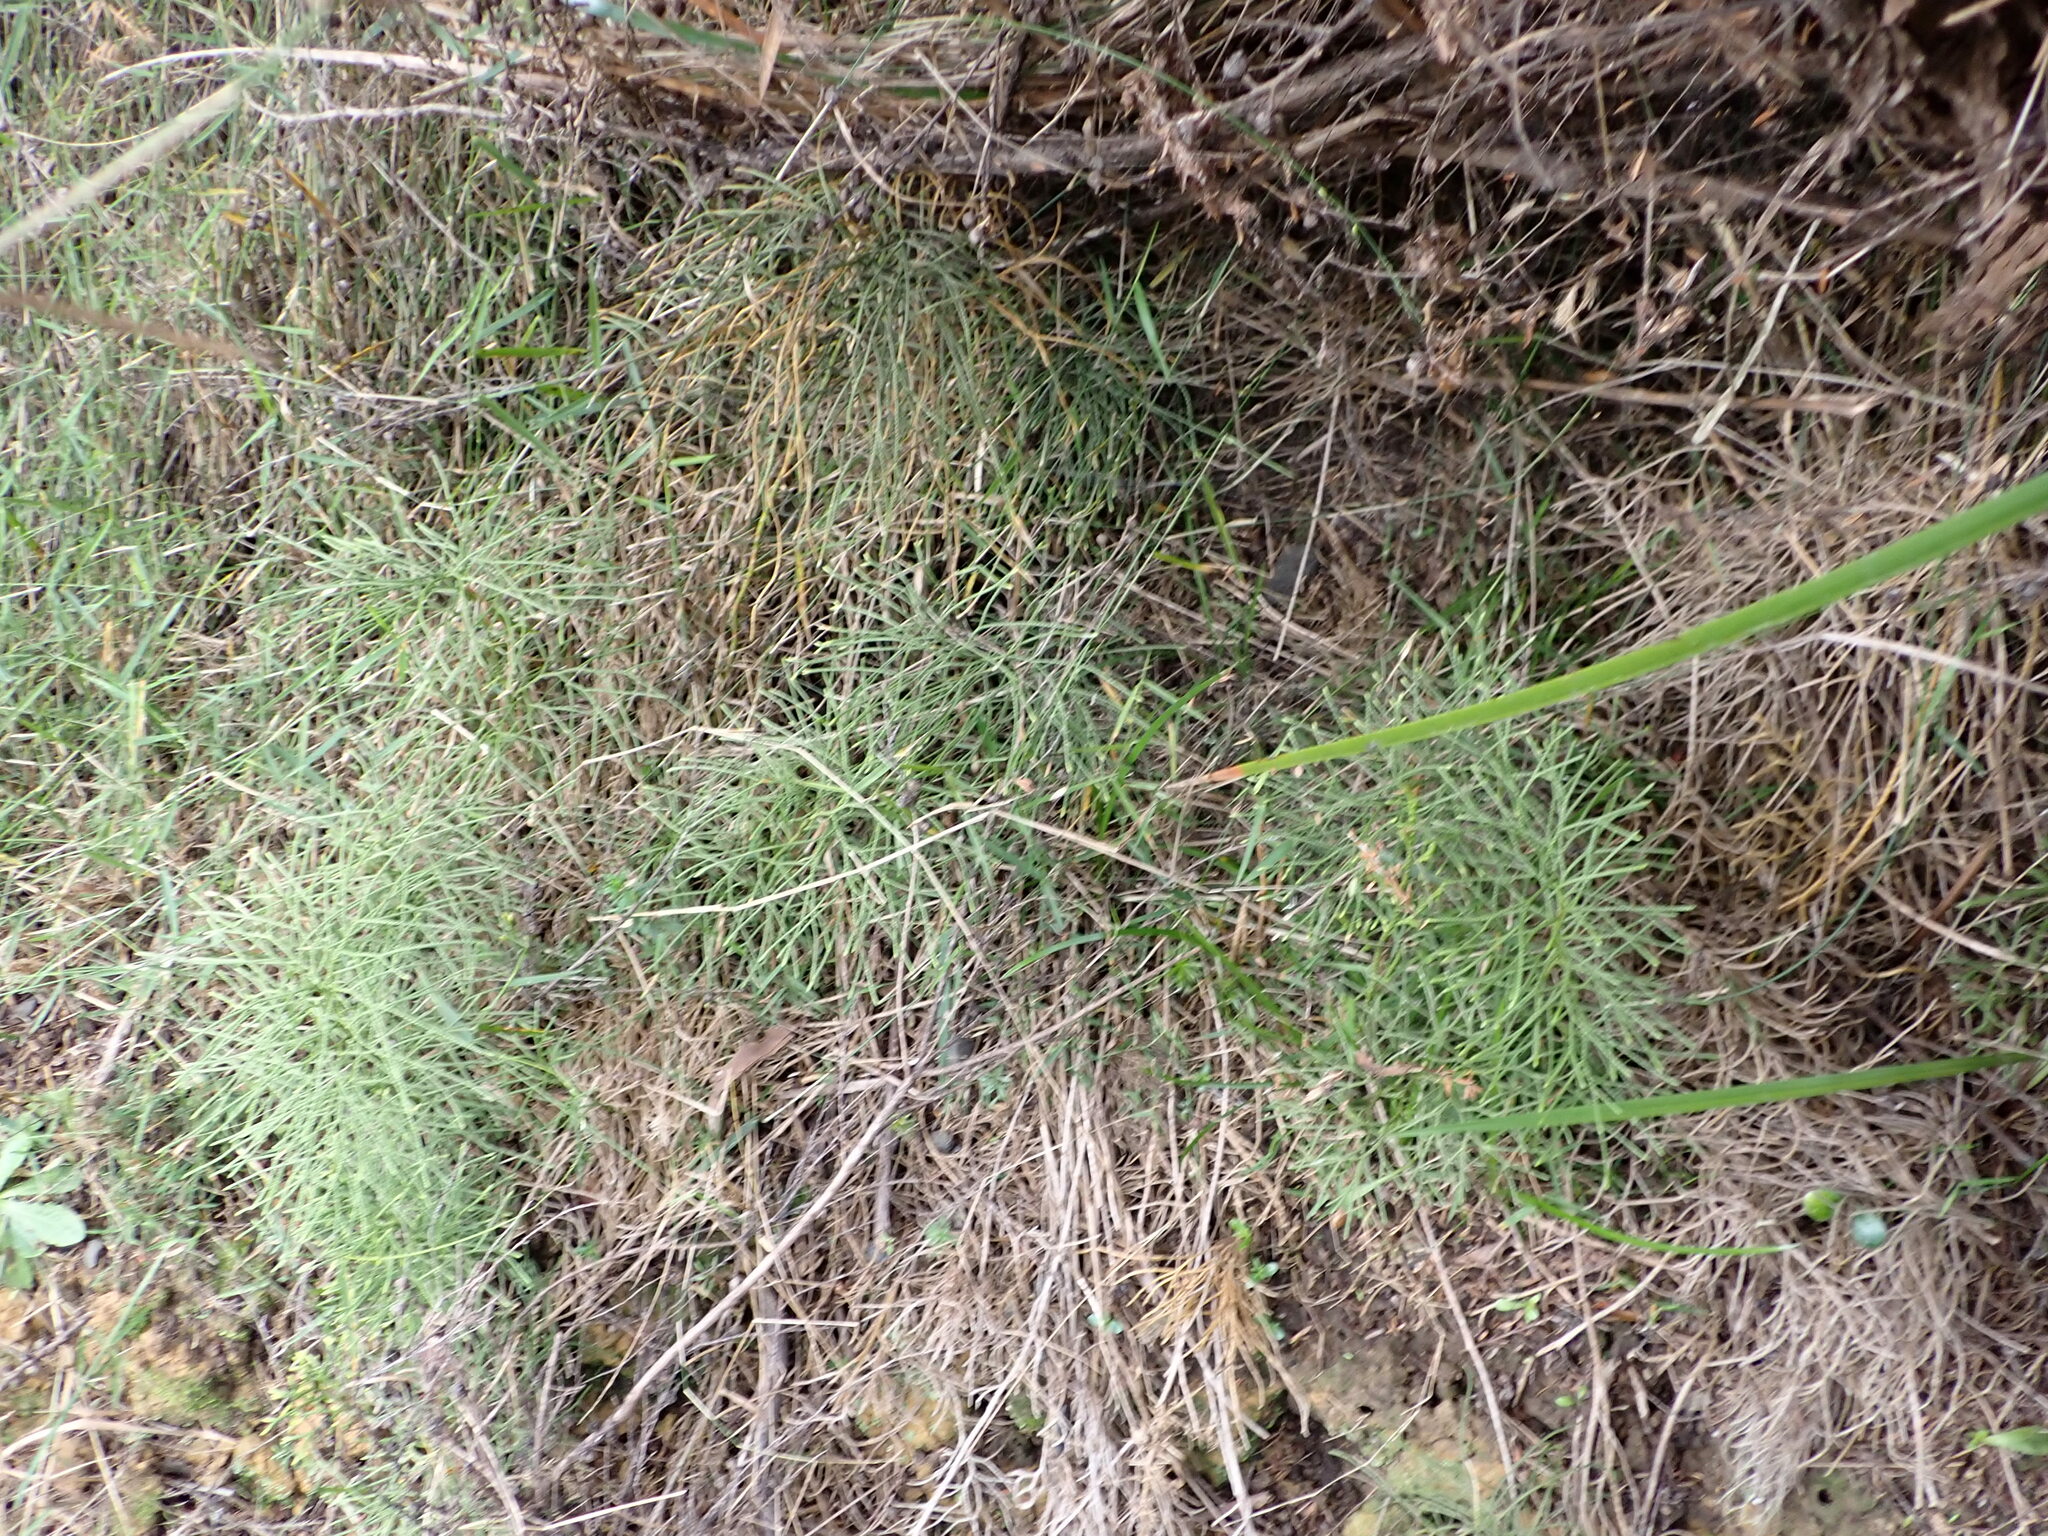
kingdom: Plantae
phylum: Tracheophyta
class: Lycopodiopsida
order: Lycopodiales
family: Lycopodiaceae
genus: Pseudolycopodium
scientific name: Pseudolycopodium densum
